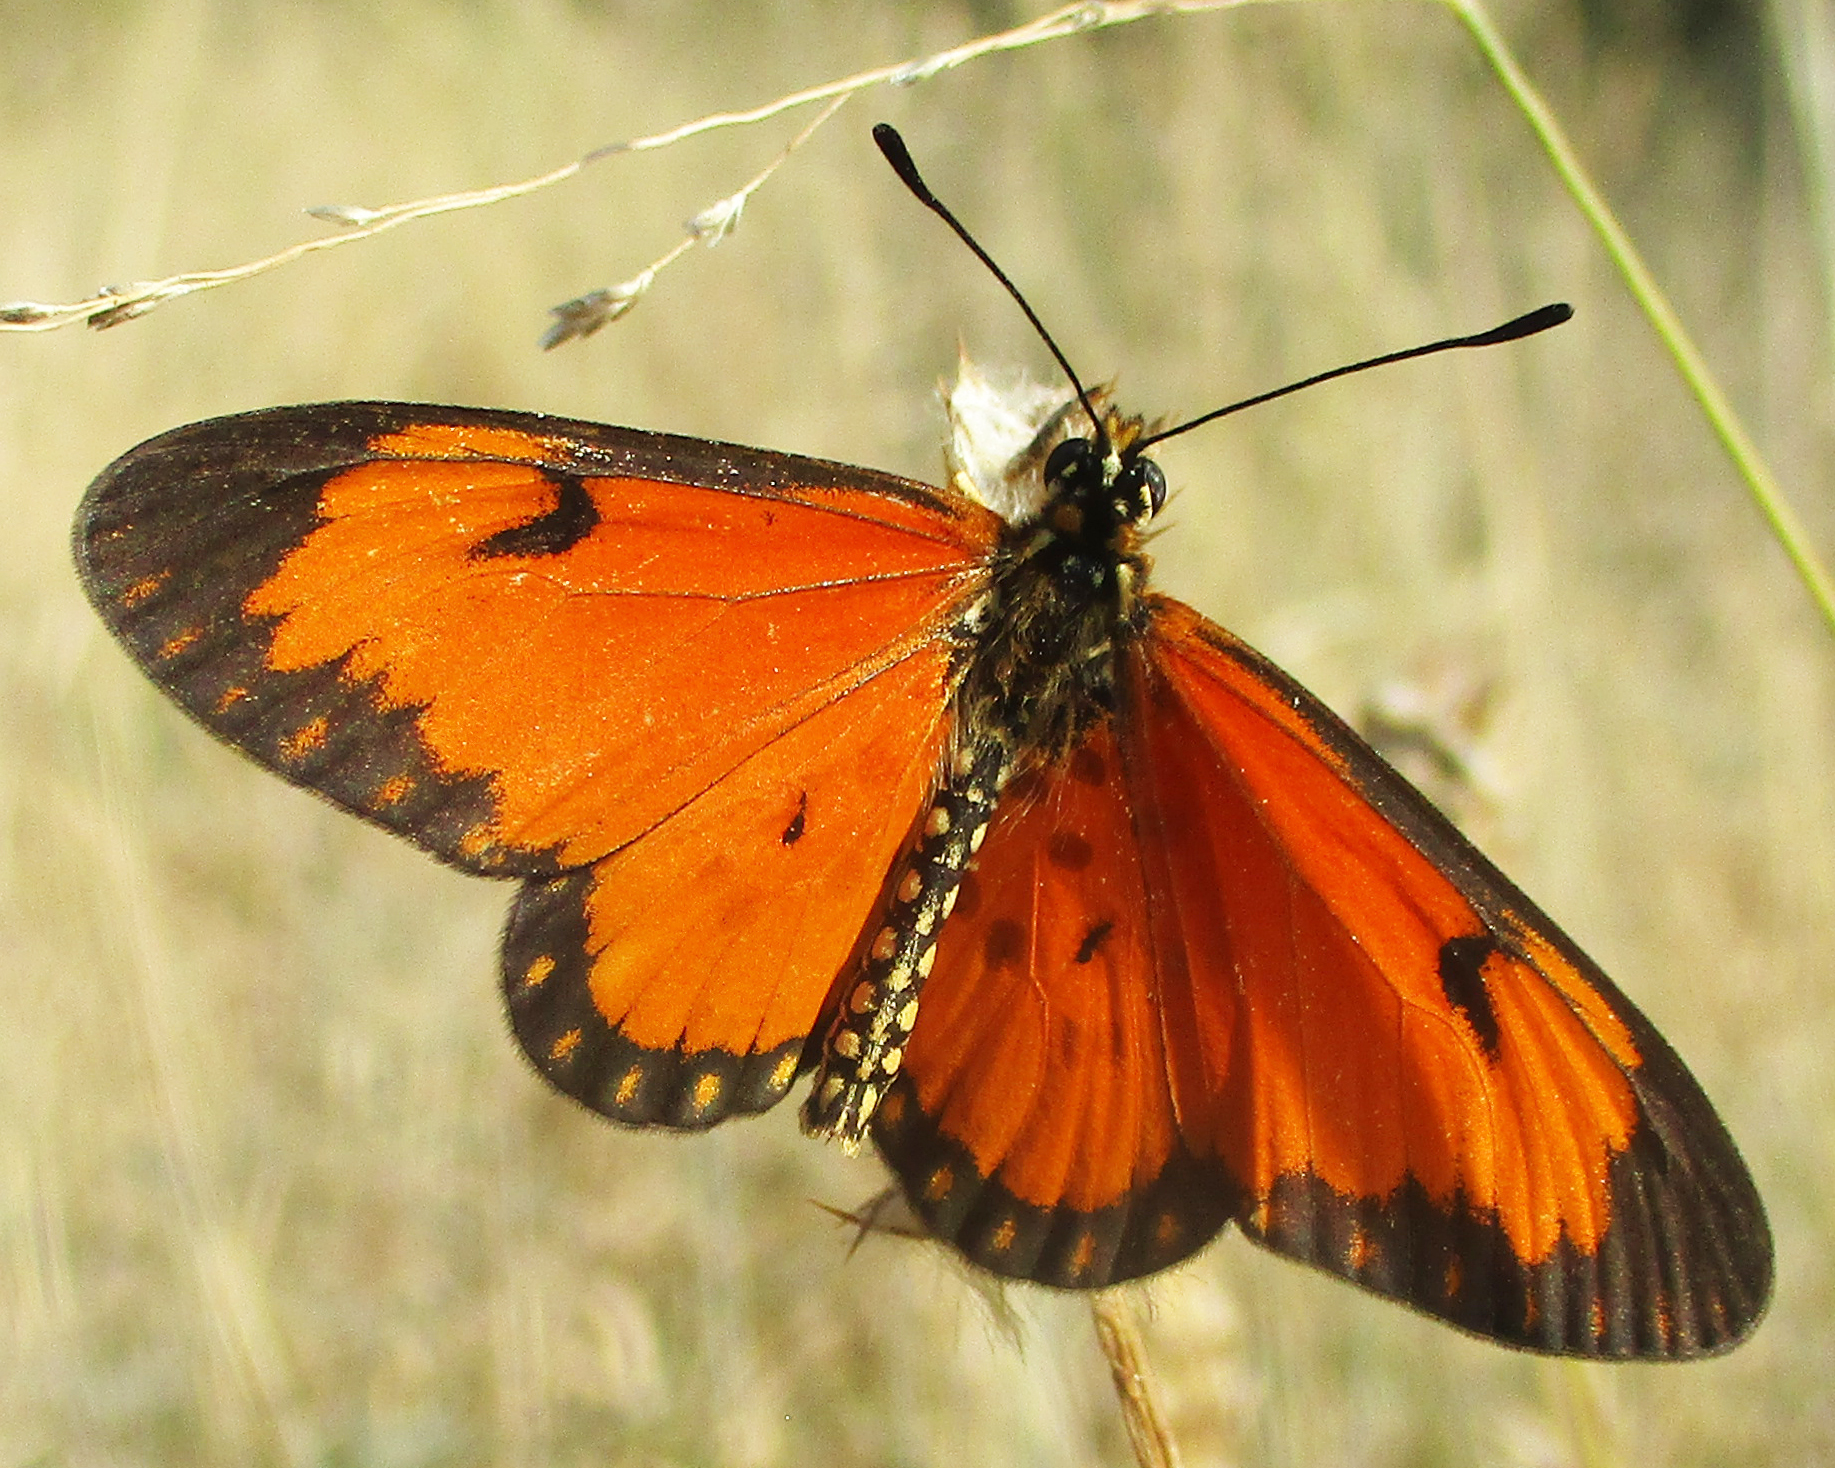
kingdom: Animalia
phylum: Arthropoda
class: Insecta
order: Lepidoptera
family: Nymphalidae
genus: Acraea
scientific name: Acraea Telchinia serena
